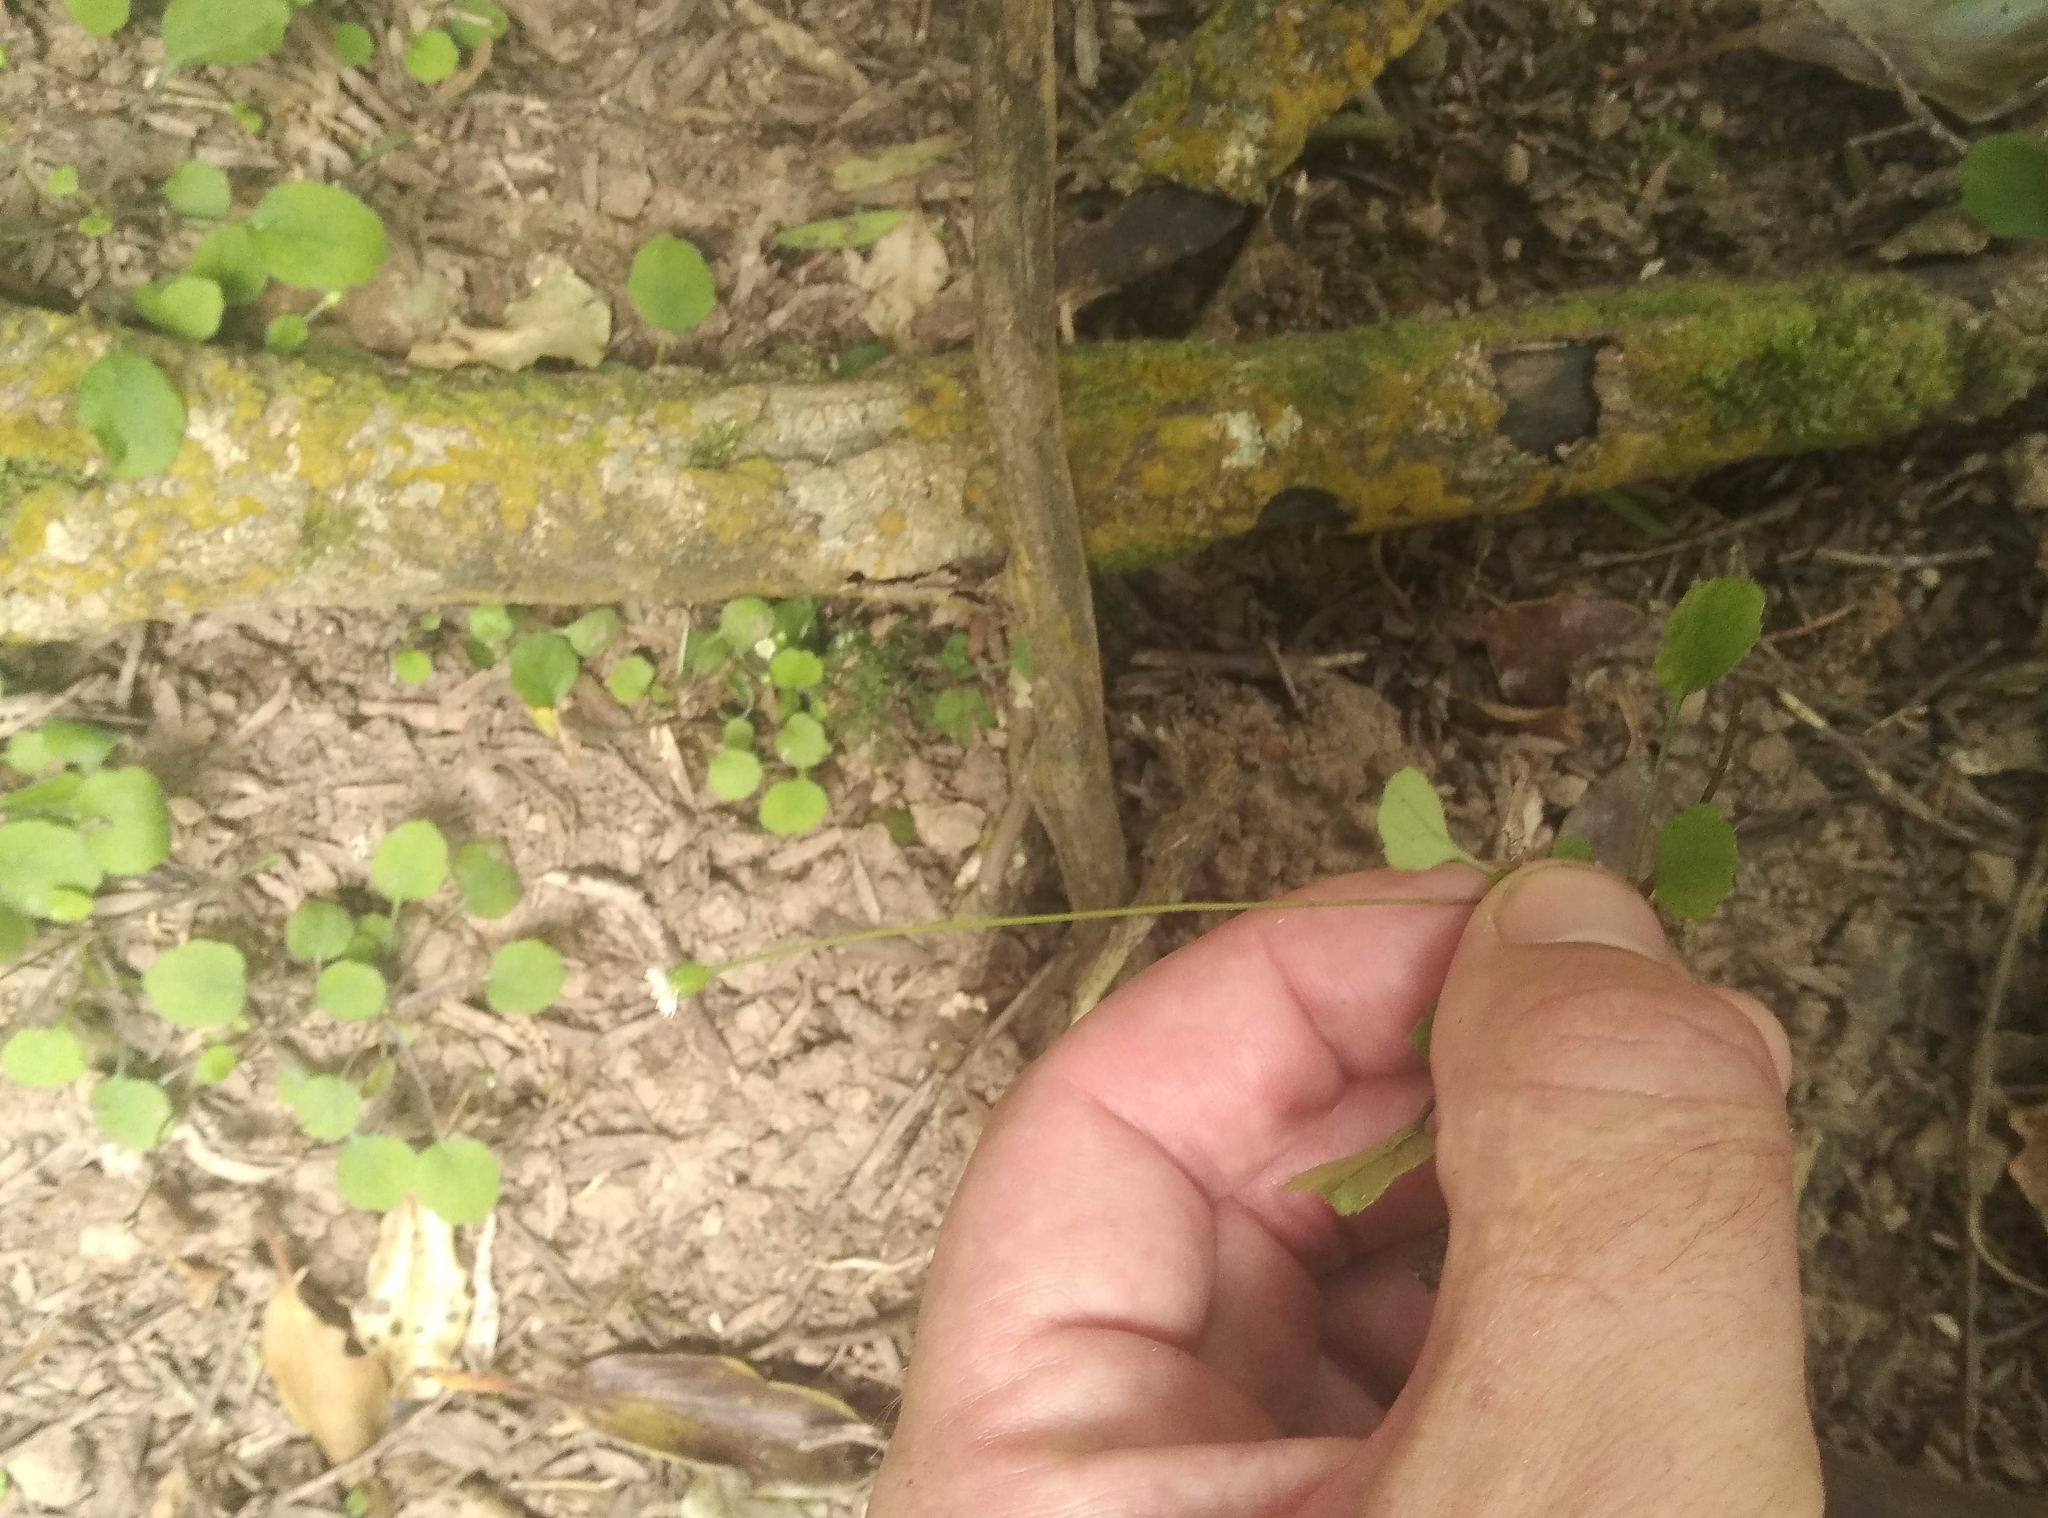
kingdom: Plantae
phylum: Tracheophyta
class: Magnoliopsida
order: Asterales
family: Asteraceae
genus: Lagenophora
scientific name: Lagenophora strangulata
